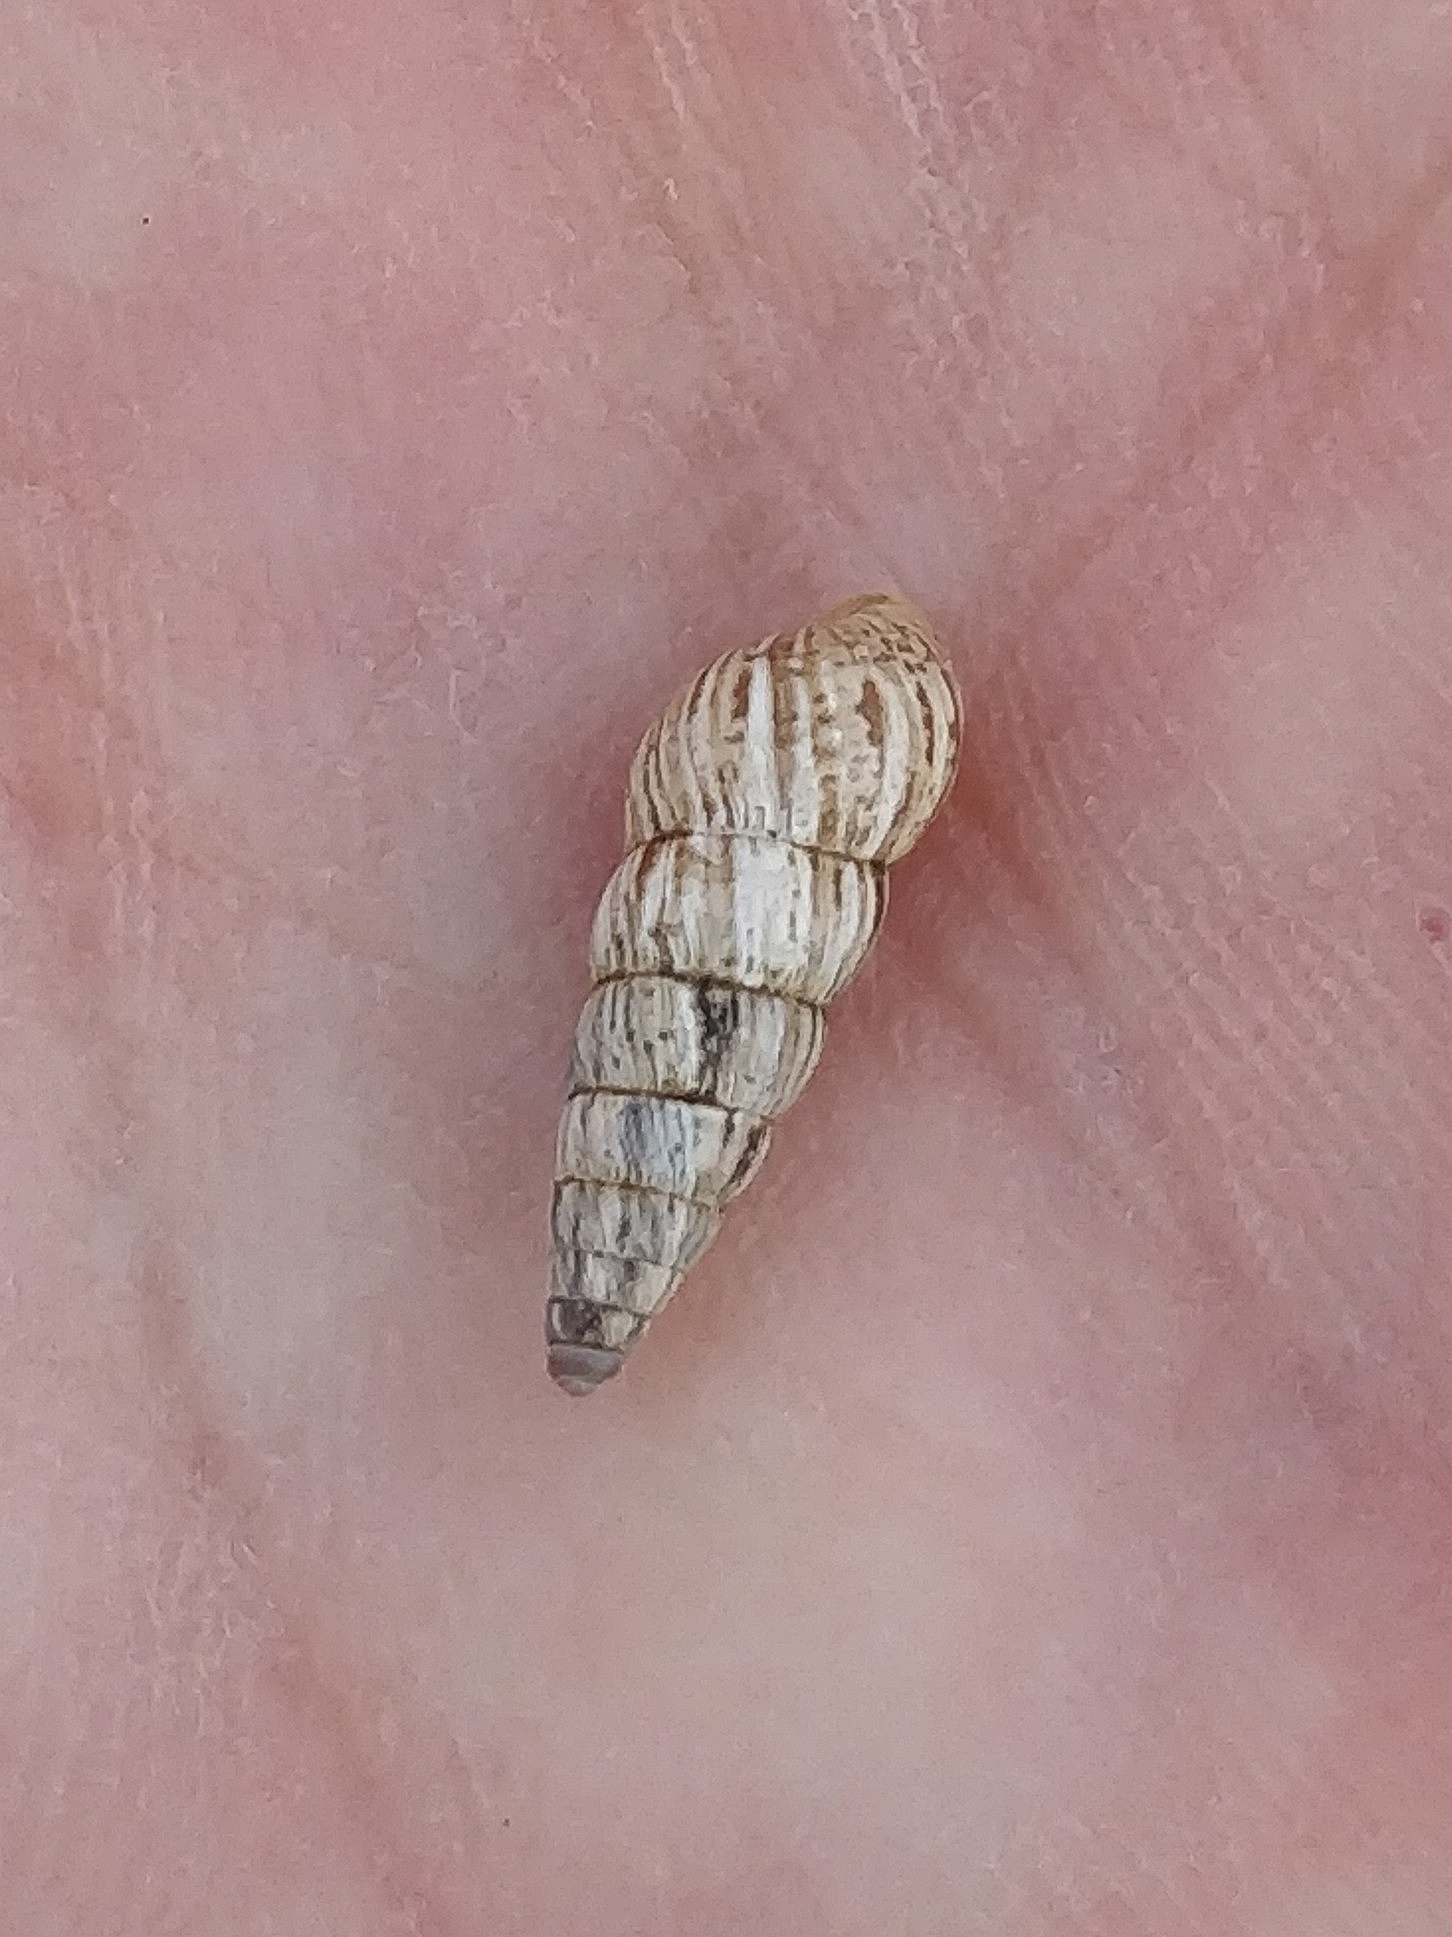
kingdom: Animalia
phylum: Mollusca
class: Gastropoda
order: Stylommatophora
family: Geomitridae
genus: Cochlicella
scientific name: Cochlicella acuta
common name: Pointed snail
